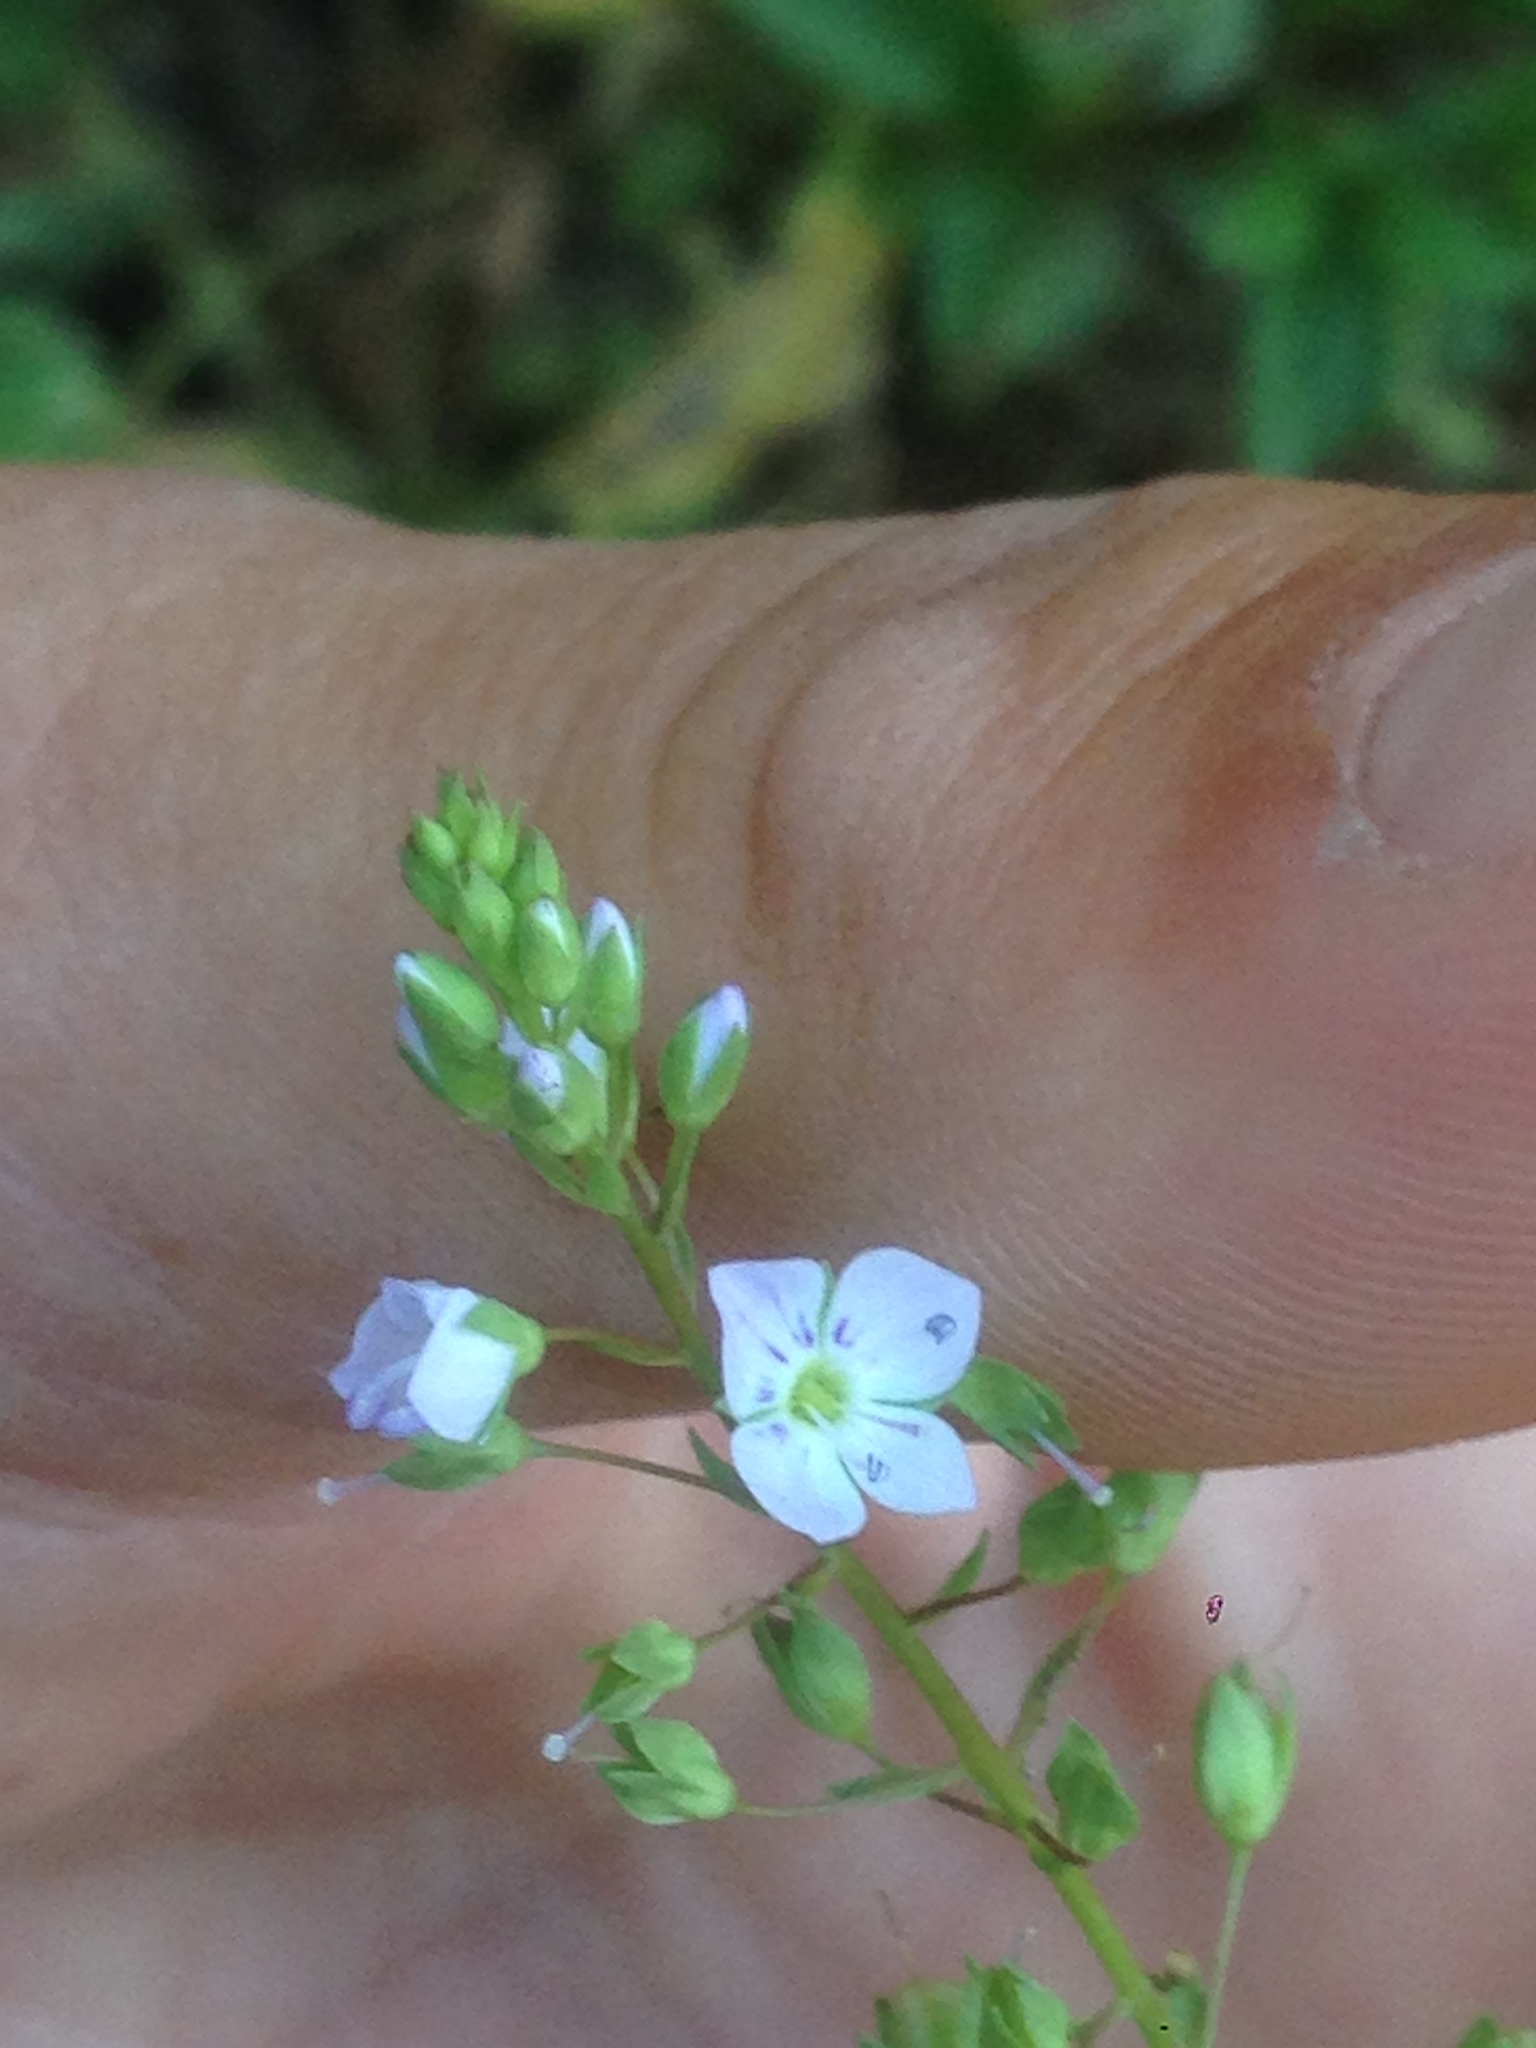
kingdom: Plantae
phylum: Tracheophyta
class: Magnoliopsida
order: Lamiales
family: Plantaginaceae
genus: Veronica
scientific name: Veronica anagallis-aquatica
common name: Water speedwell
